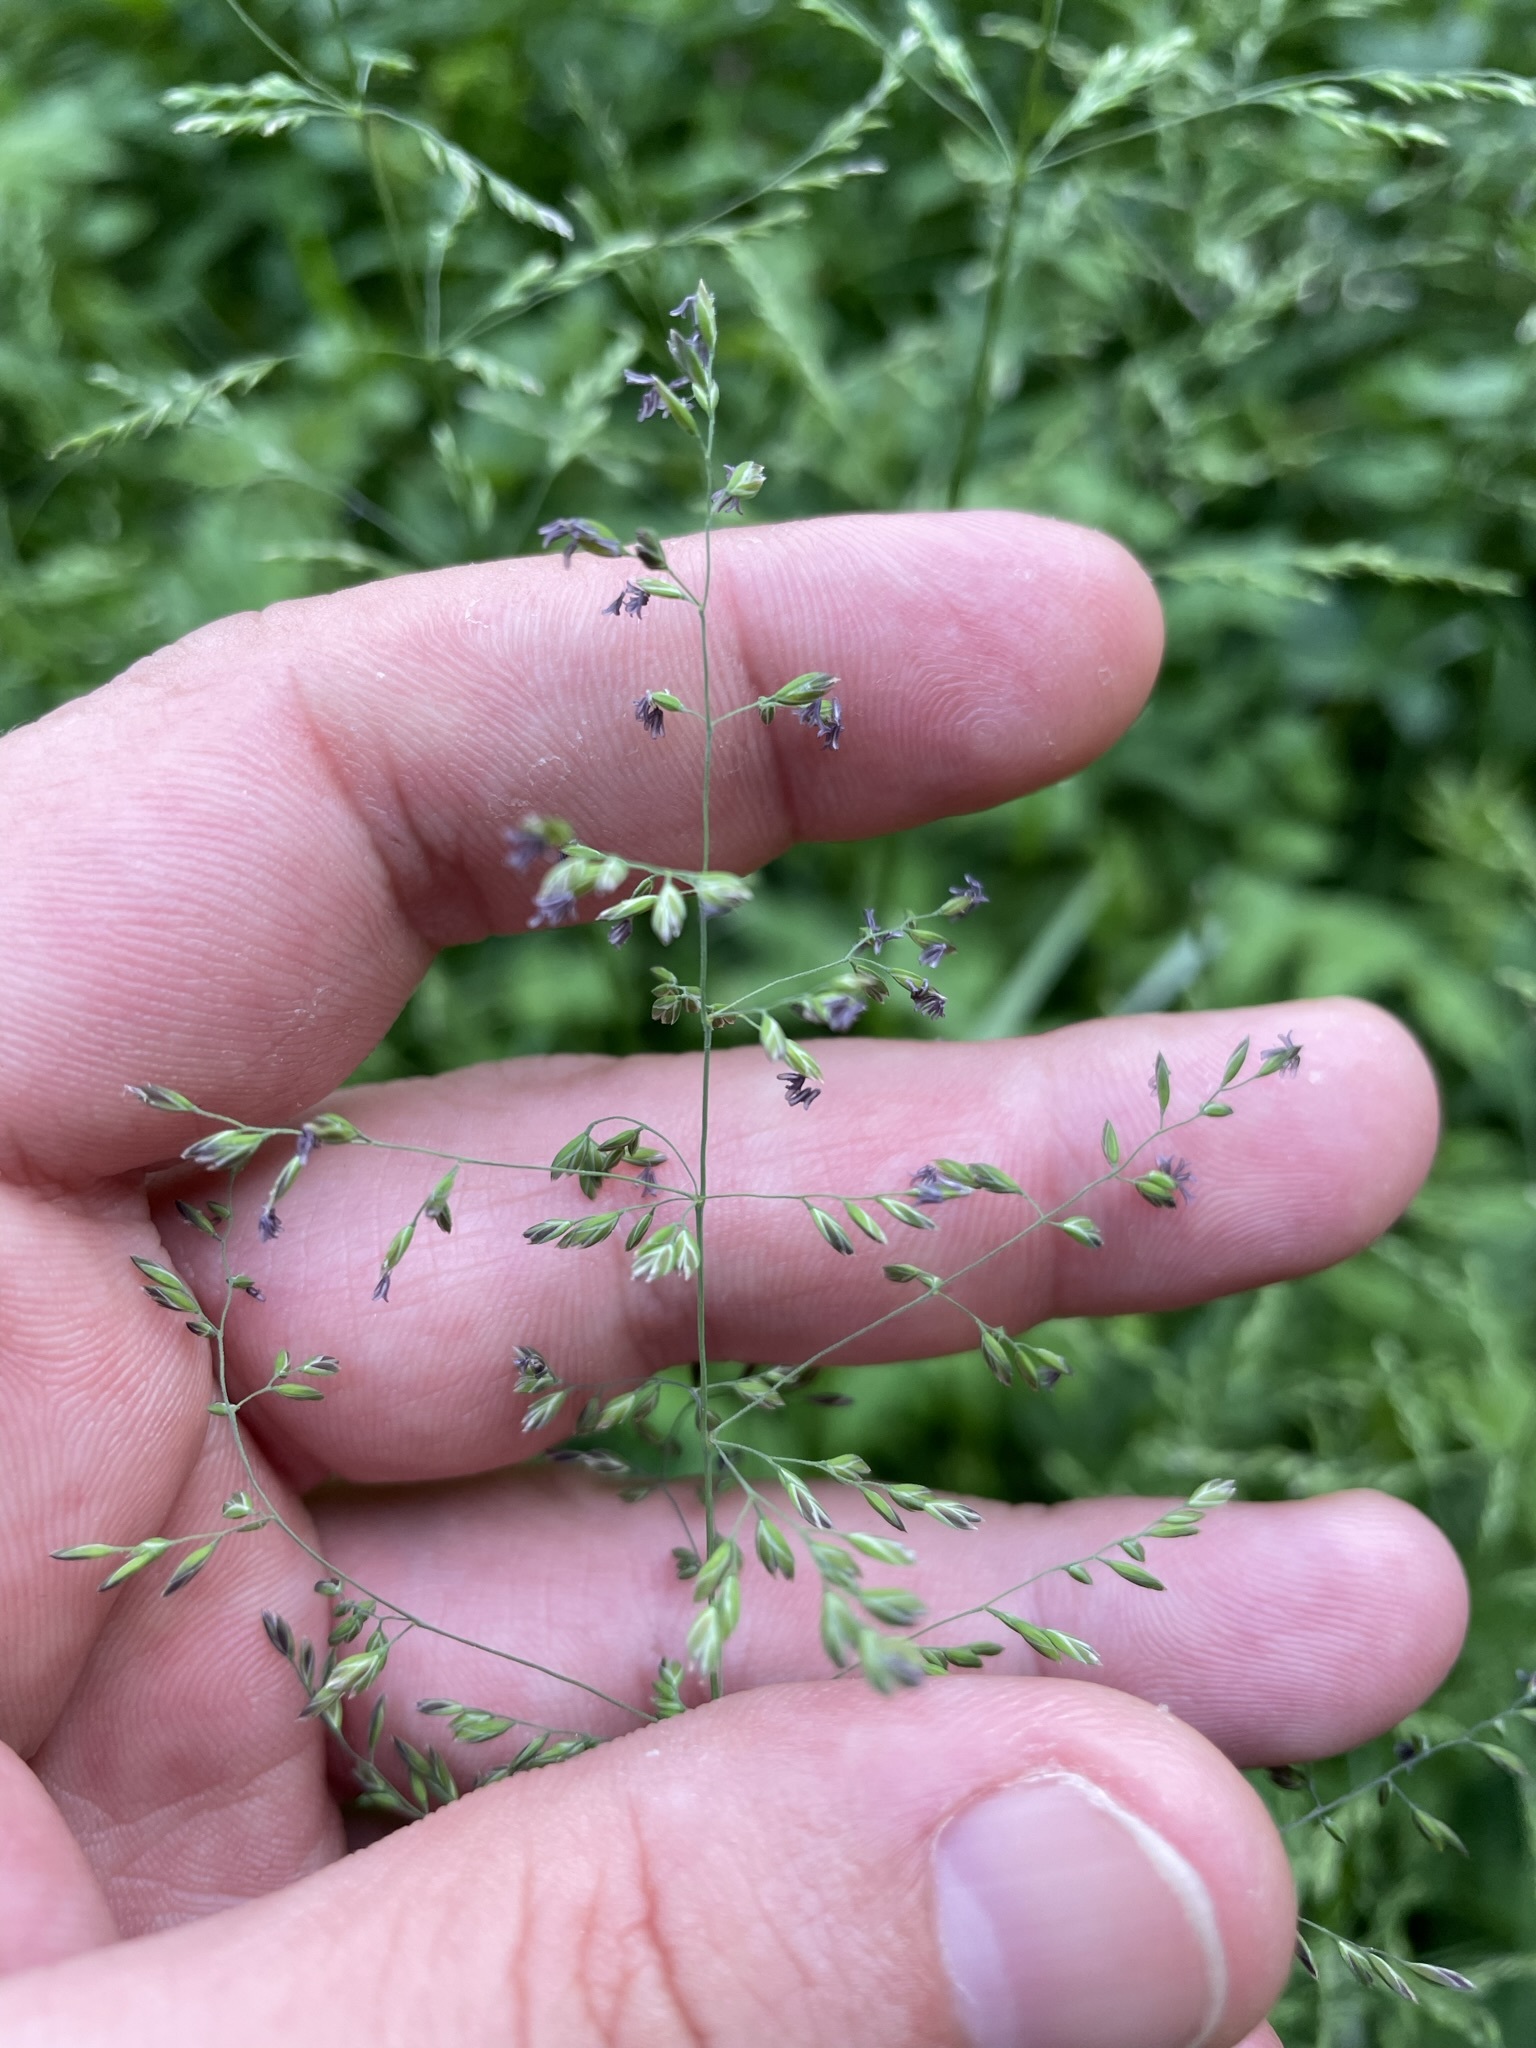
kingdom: Plantae
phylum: Tracheophyta
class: Liliopsida
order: Poales
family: Poaceae
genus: Poa
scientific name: Poa trivialis
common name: Rough bluegrass
